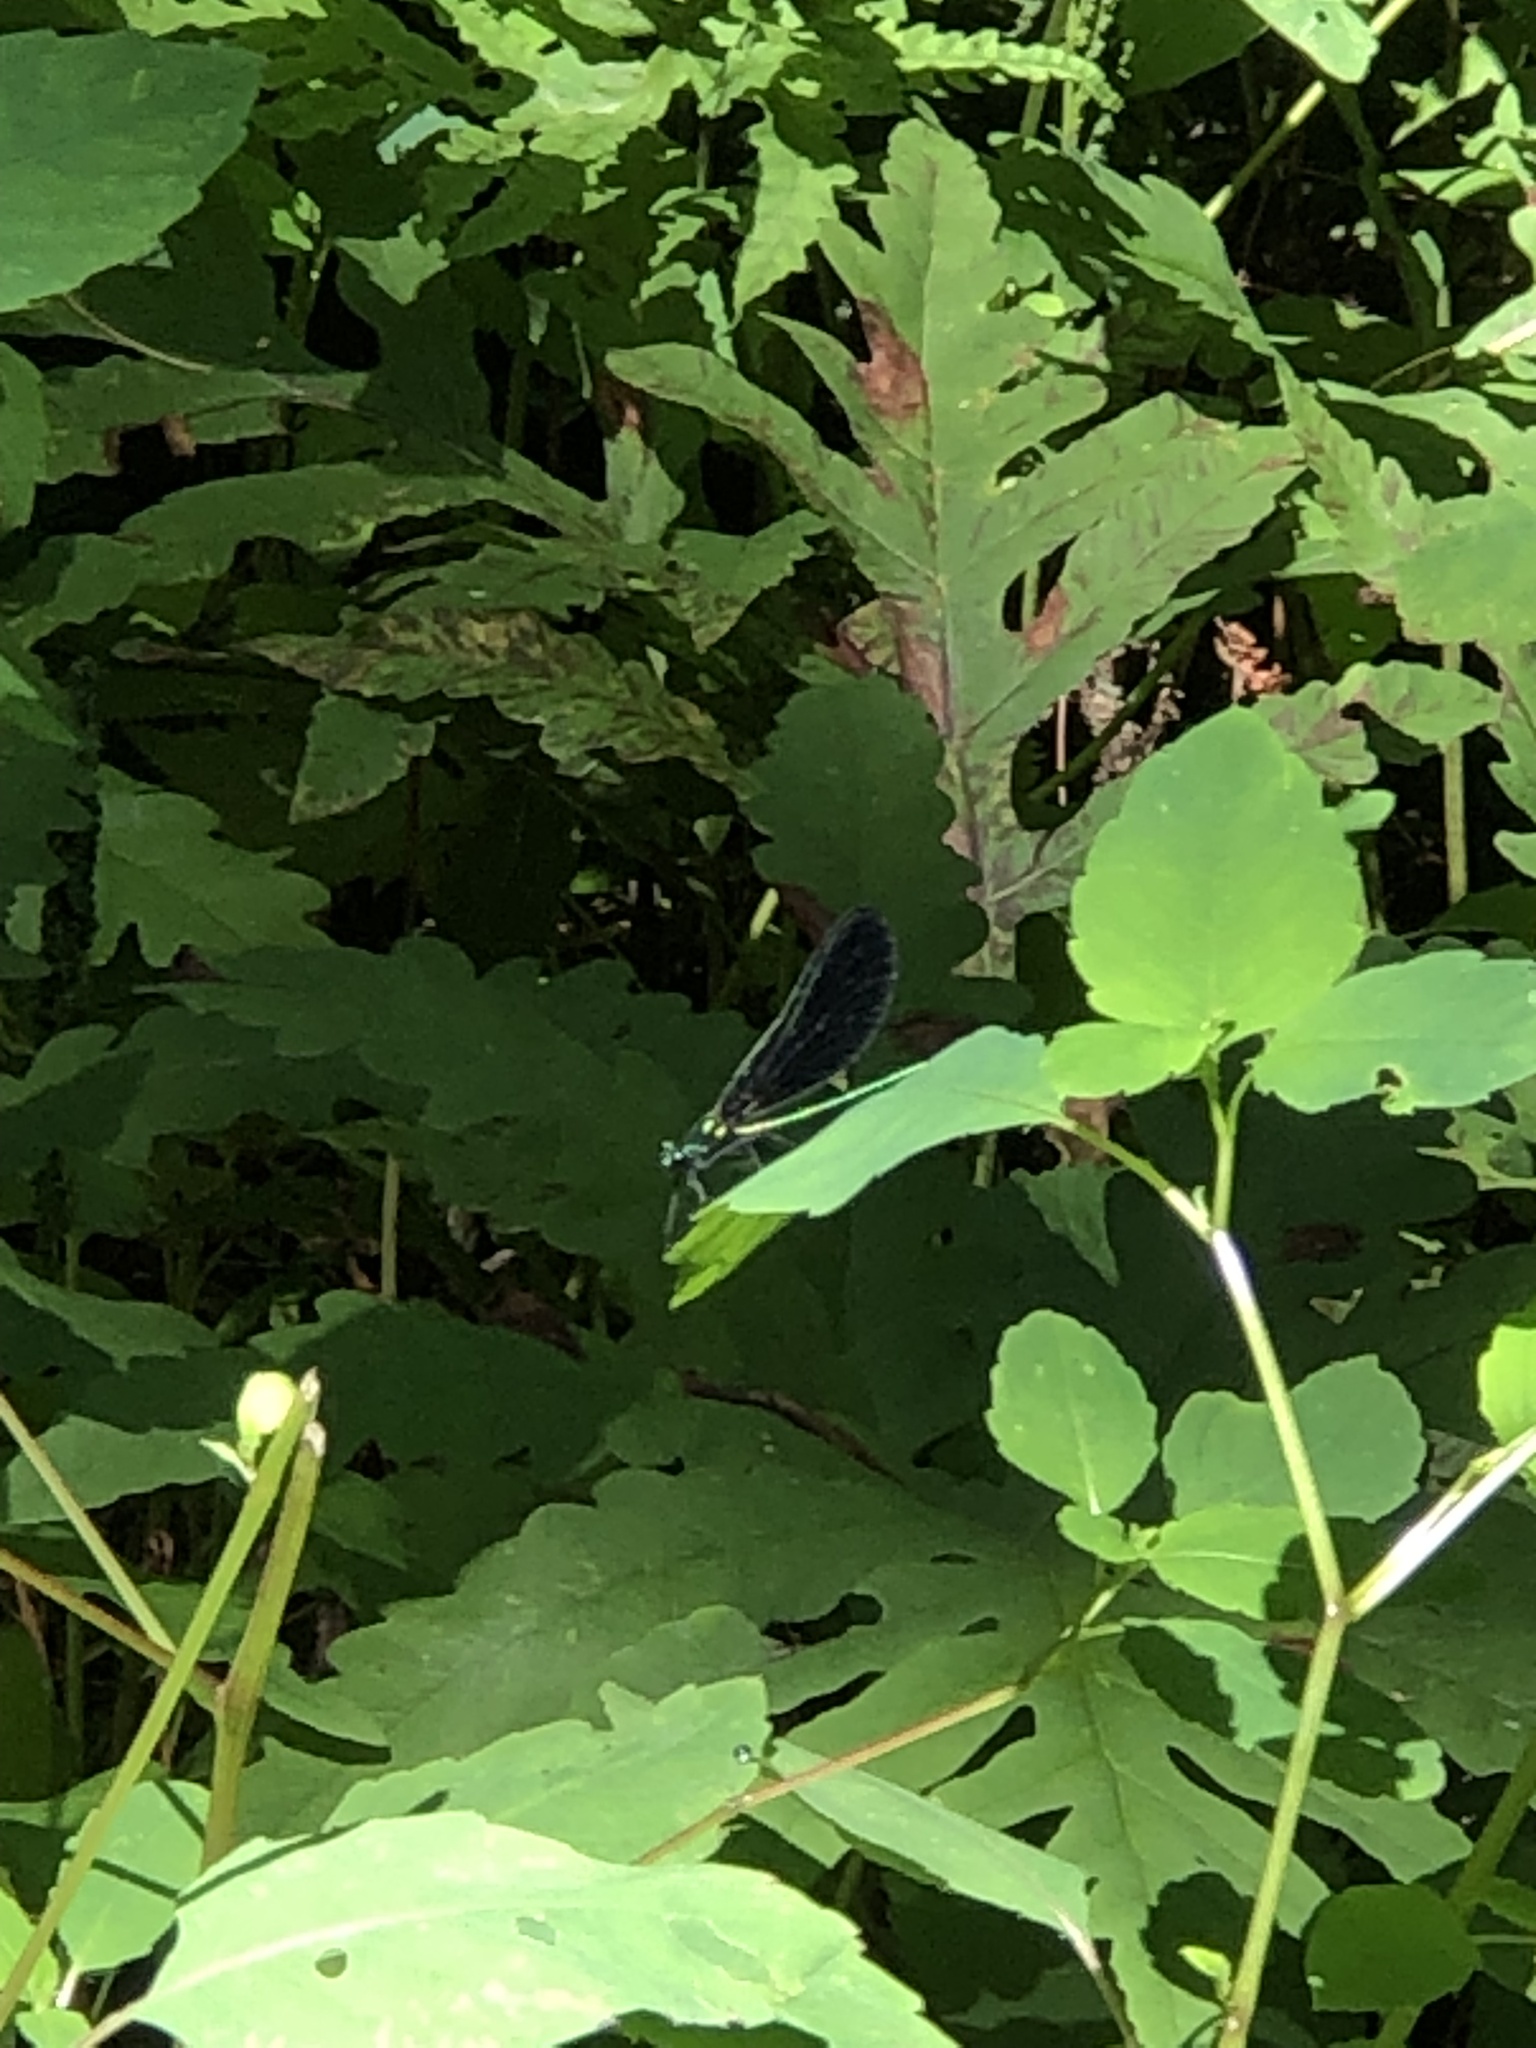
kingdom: Animalia
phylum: Arthropoda
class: Insecta
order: Odonata
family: Calopterygidae
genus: Calopteryx
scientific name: Calopteryx maculata
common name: Ebony jewelwing
